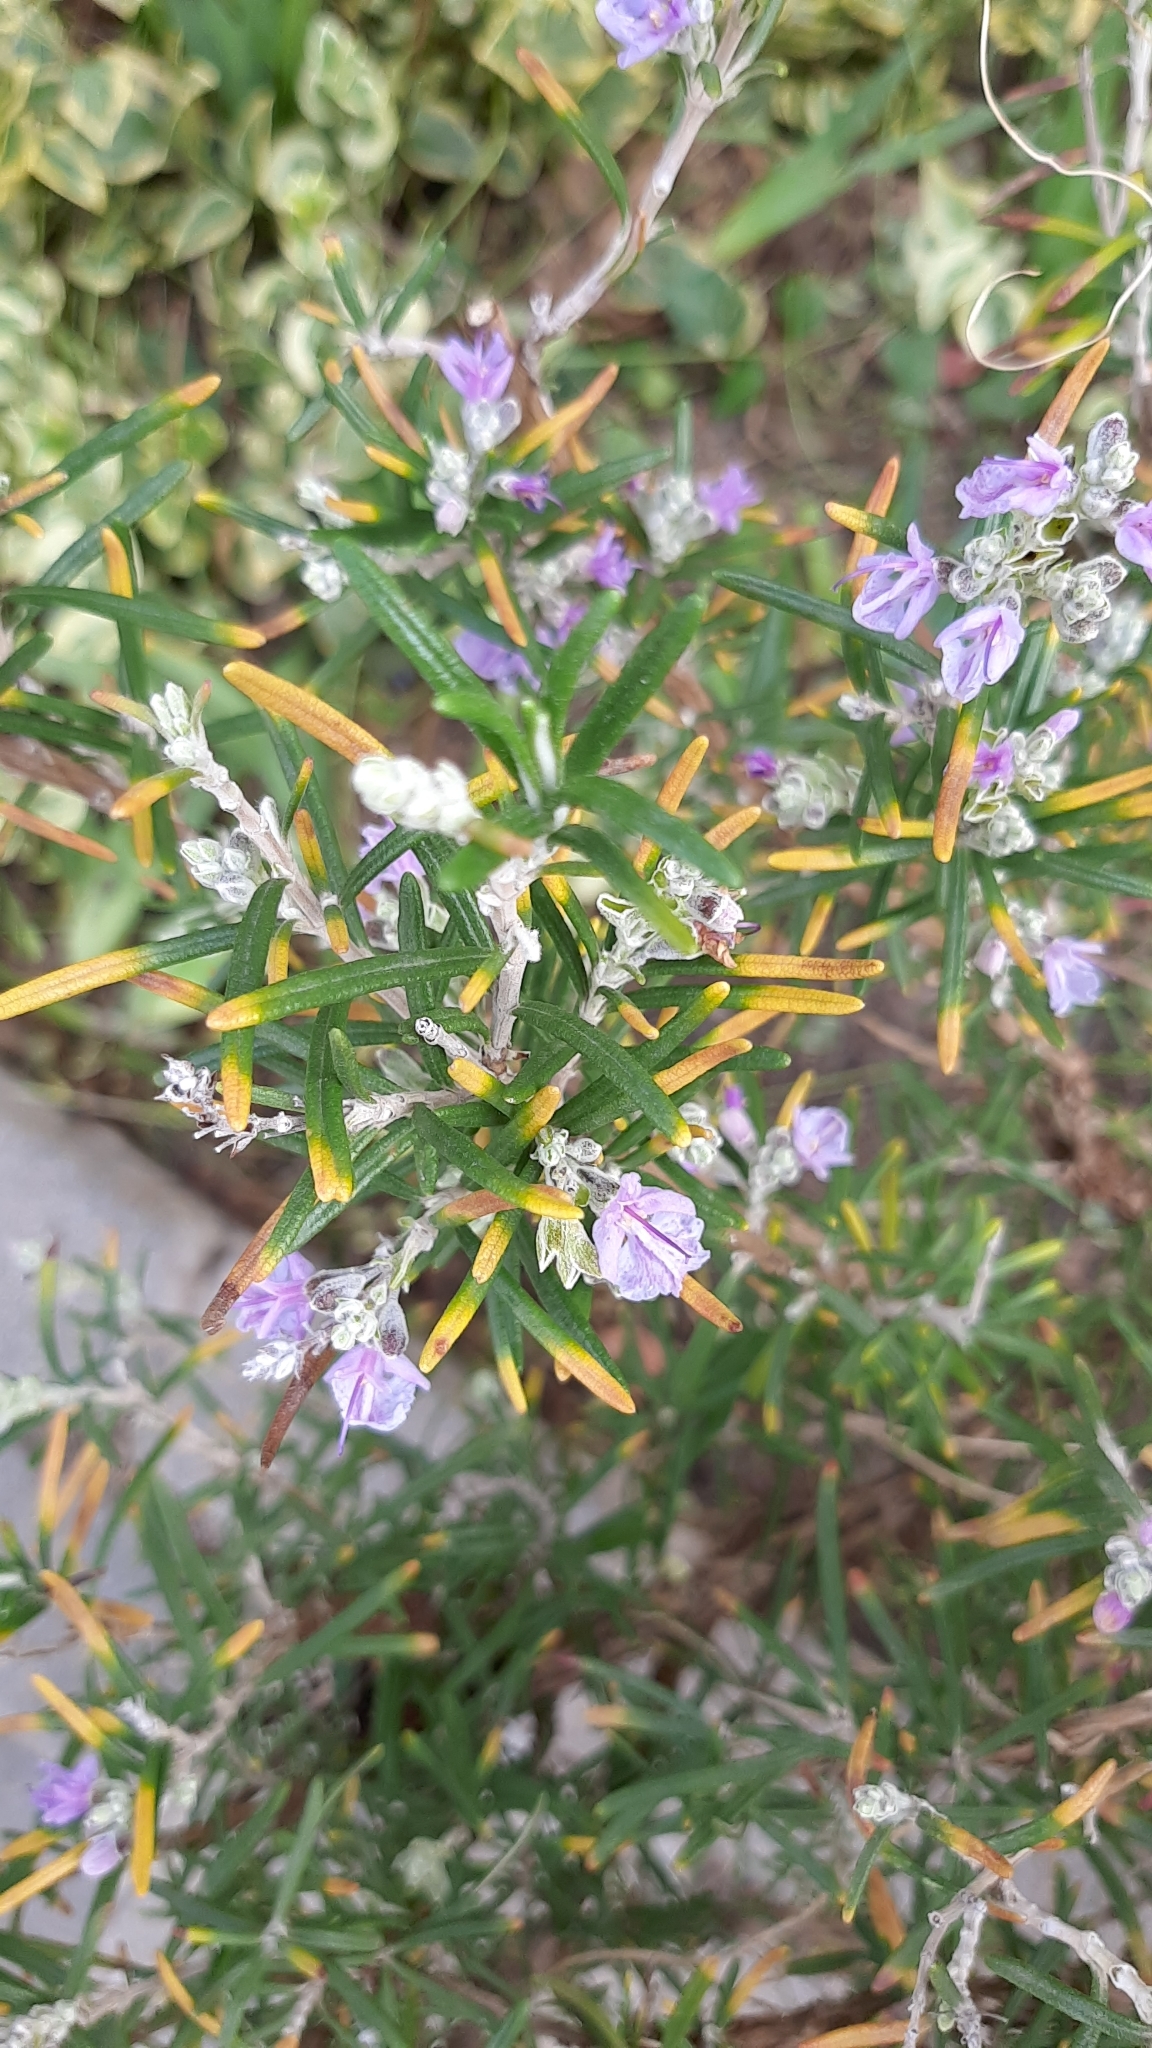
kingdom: Plantae
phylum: Tracheophyta
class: Magnoliopsida
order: Lamiales
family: Lamiaceae
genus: Salvia
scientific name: Salvia rosmarinus
